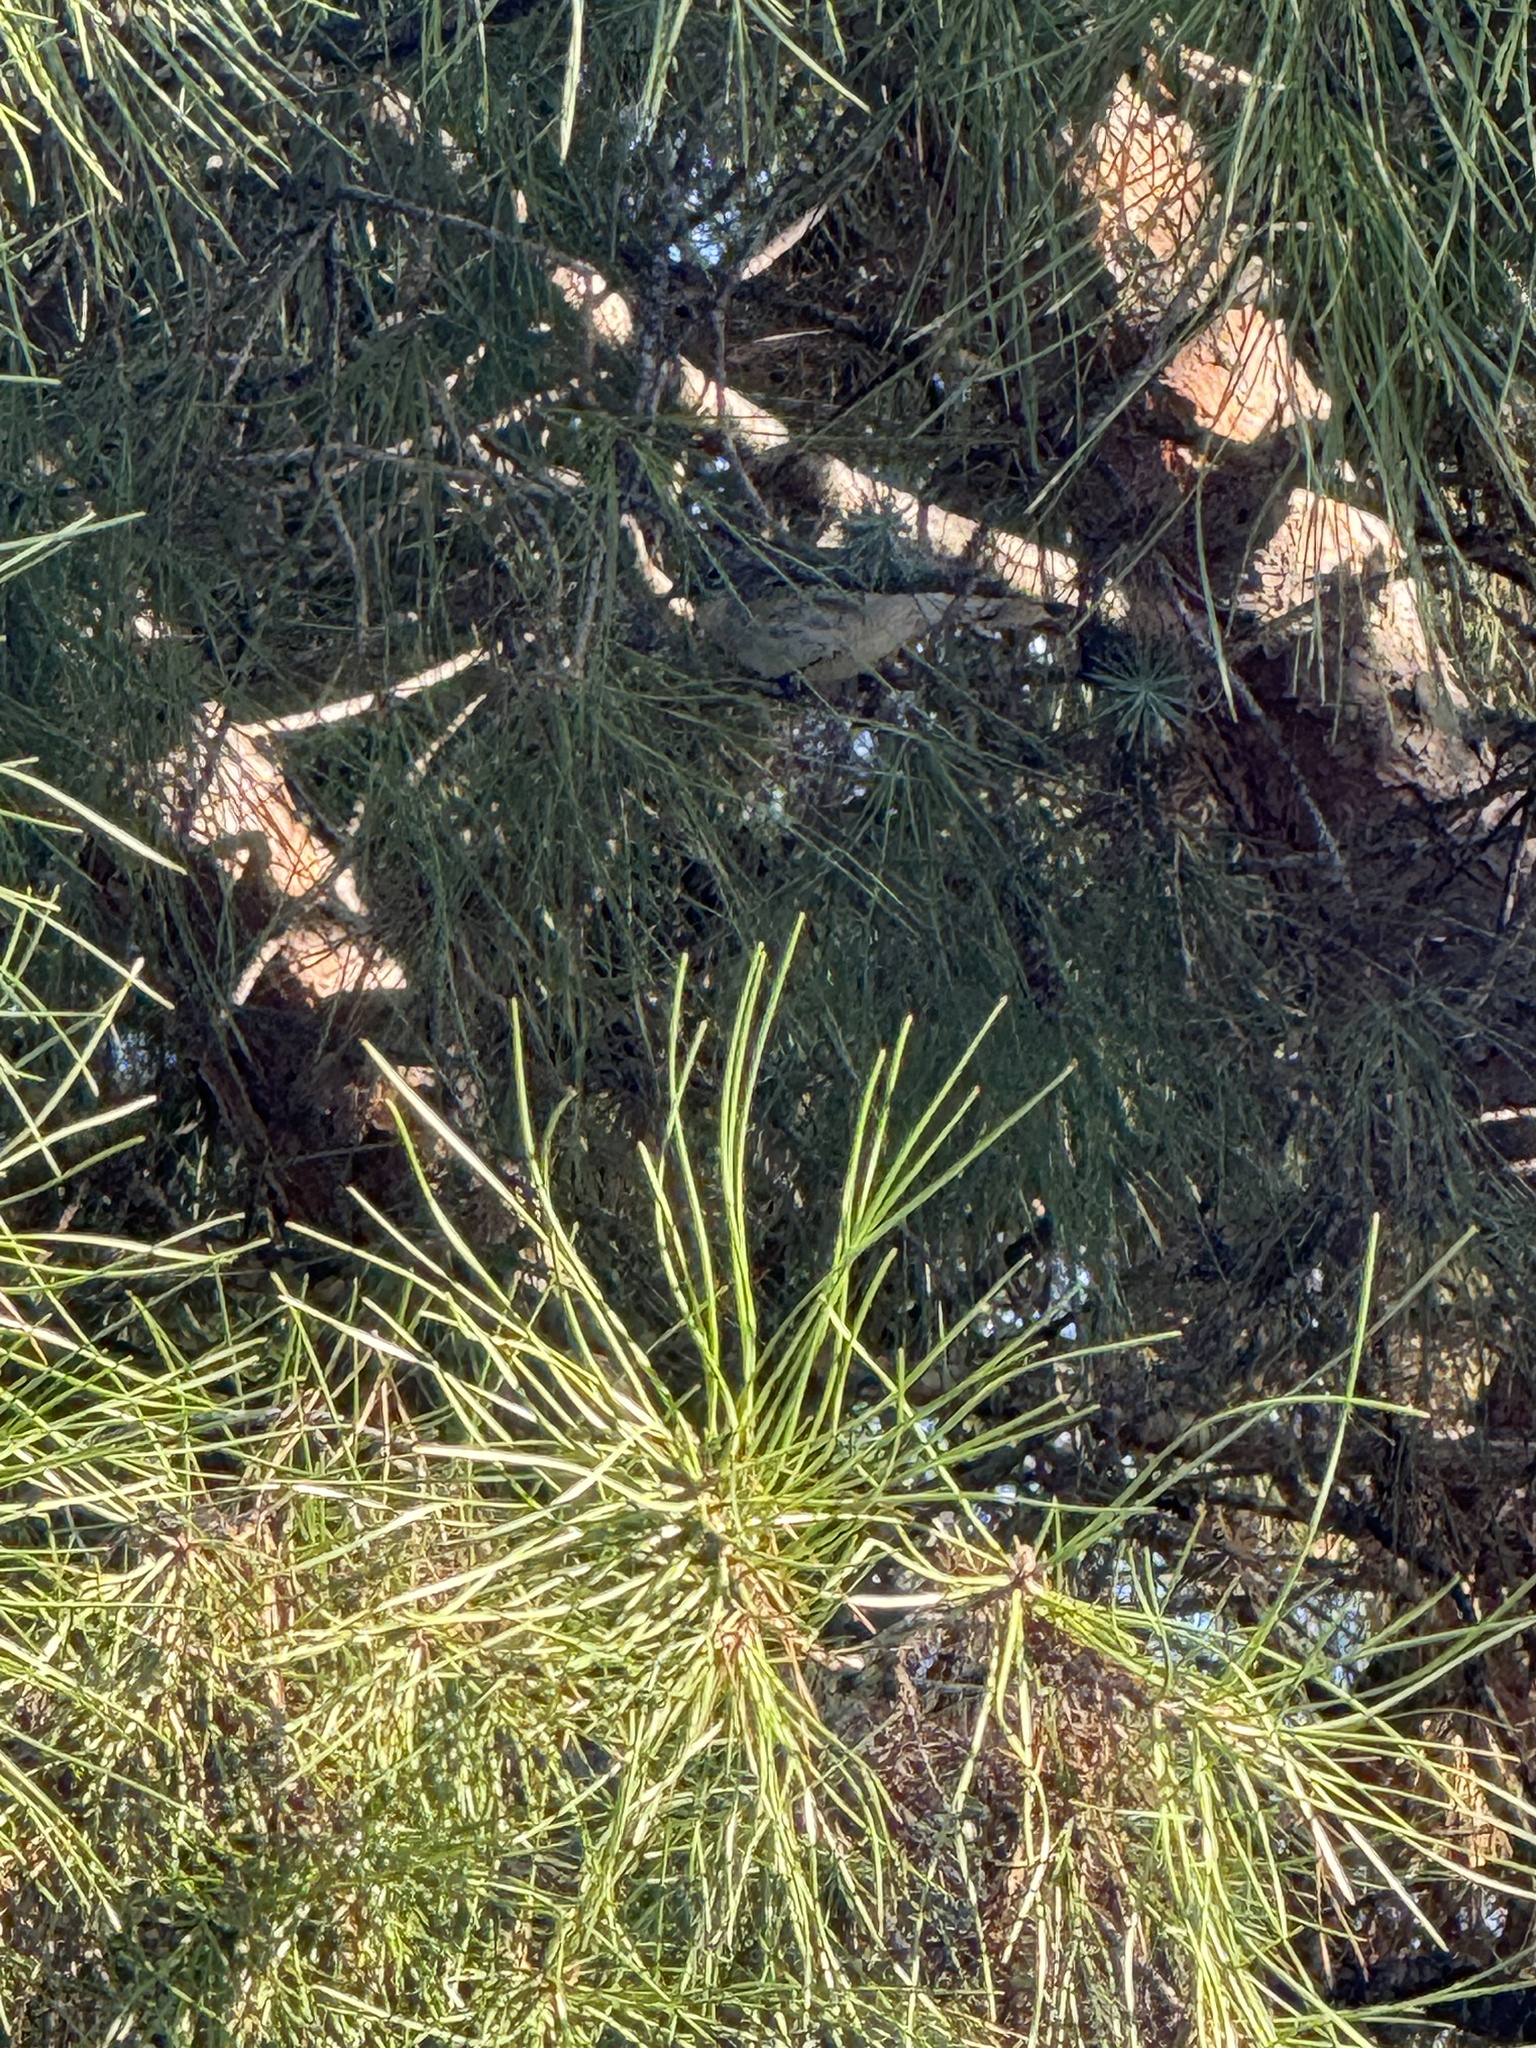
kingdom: Animalia
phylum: Chordata
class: Aves
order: Passeriformes
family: Parulidae
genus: Setophaga
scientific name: Setophaga coronata
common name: Myrtle warbler
